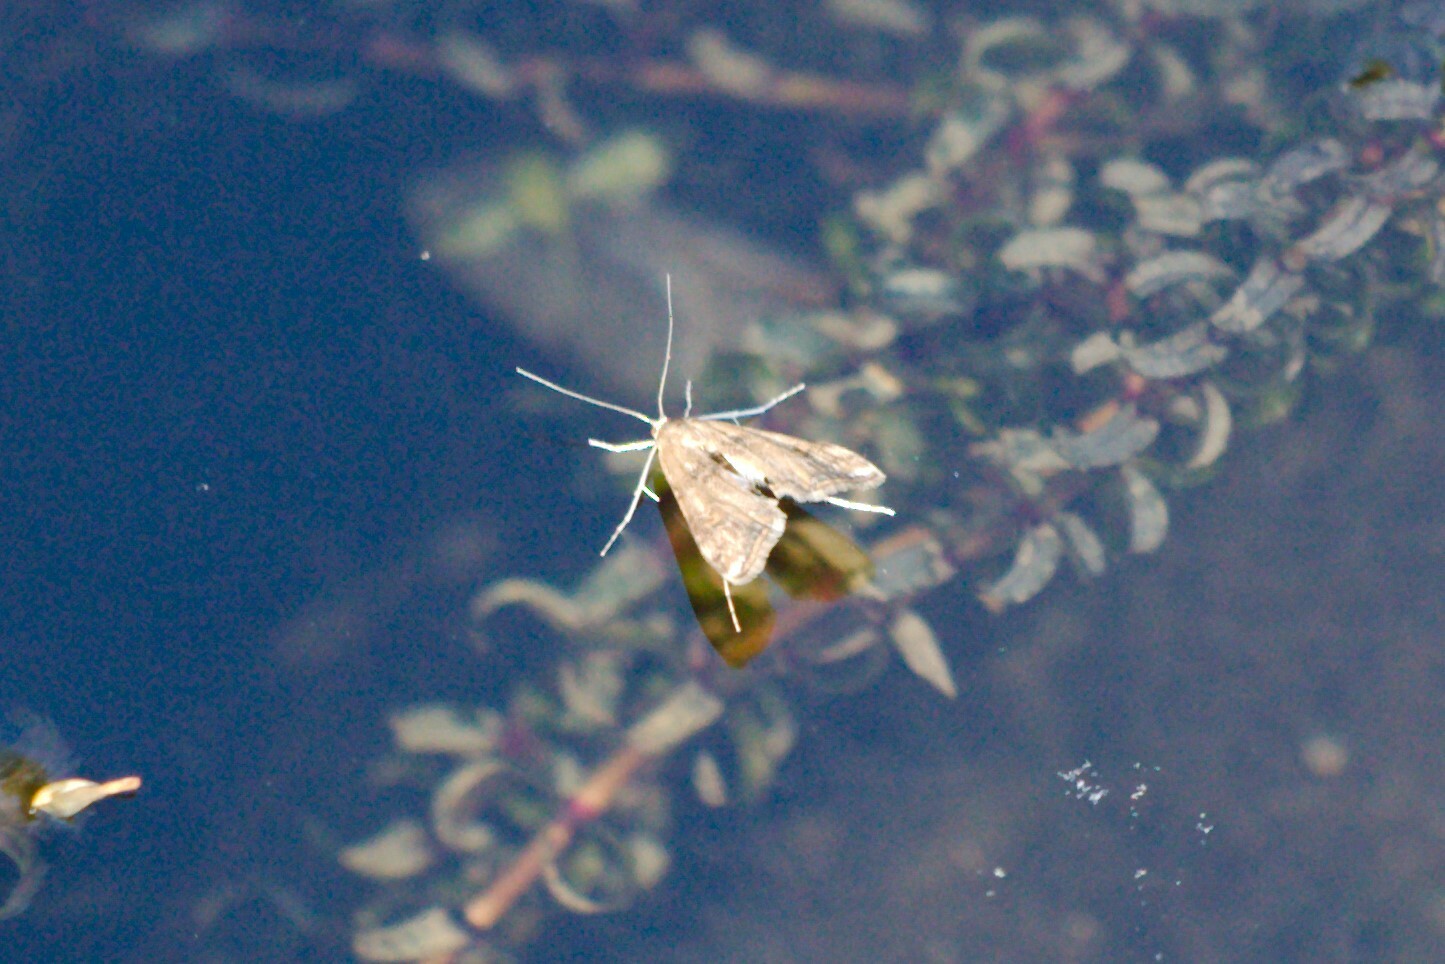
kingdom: Animalia
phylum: Arthropoda
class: Insecta
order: Lepidoptera
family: Crambidae
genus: Cataclysta
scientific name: Cataclysta lemnata
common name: Small china-mark
